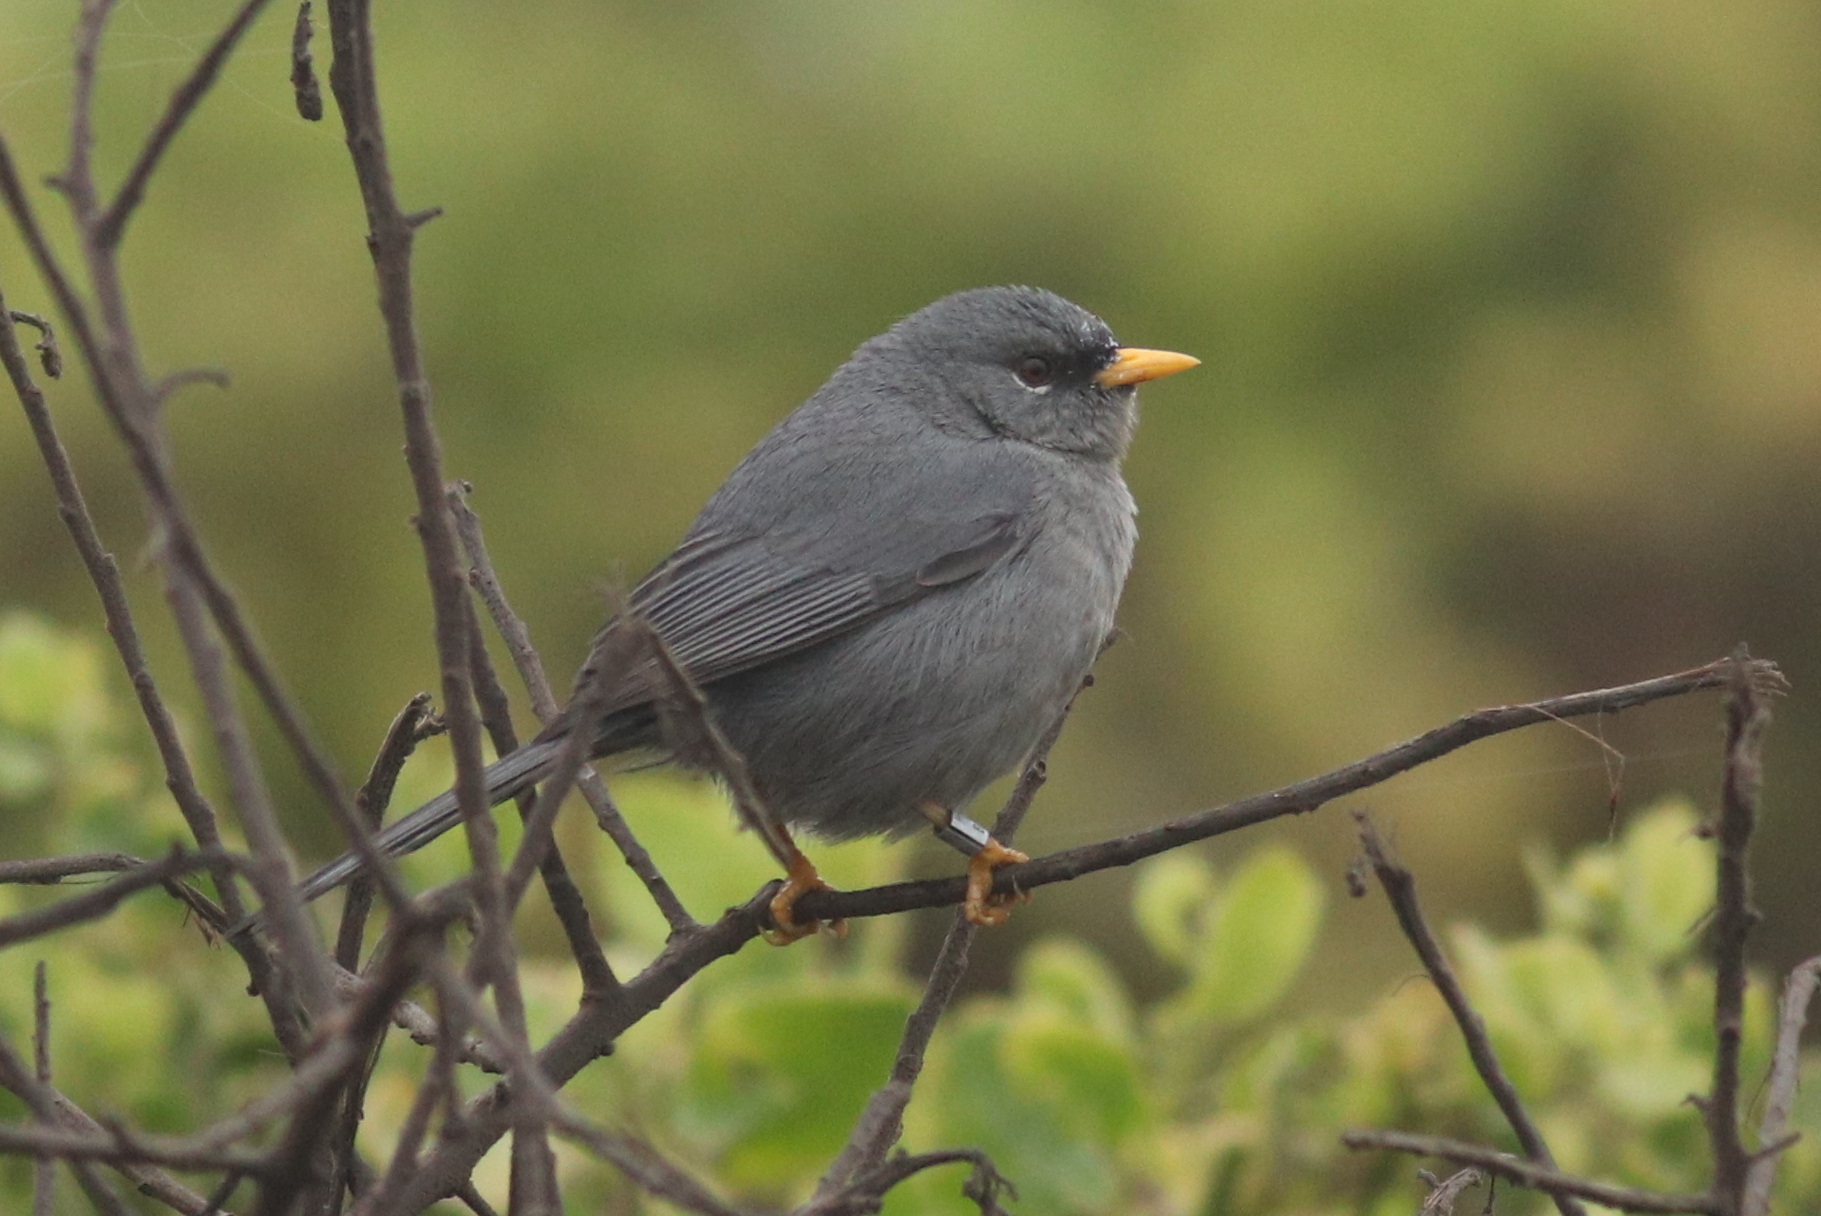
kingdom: Animalia
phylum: Chordata
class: Aves
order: Passeriformes
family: Thraupidae
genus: Xenospingus
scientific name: Xenospingus concolor
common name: Slender-billed finch
